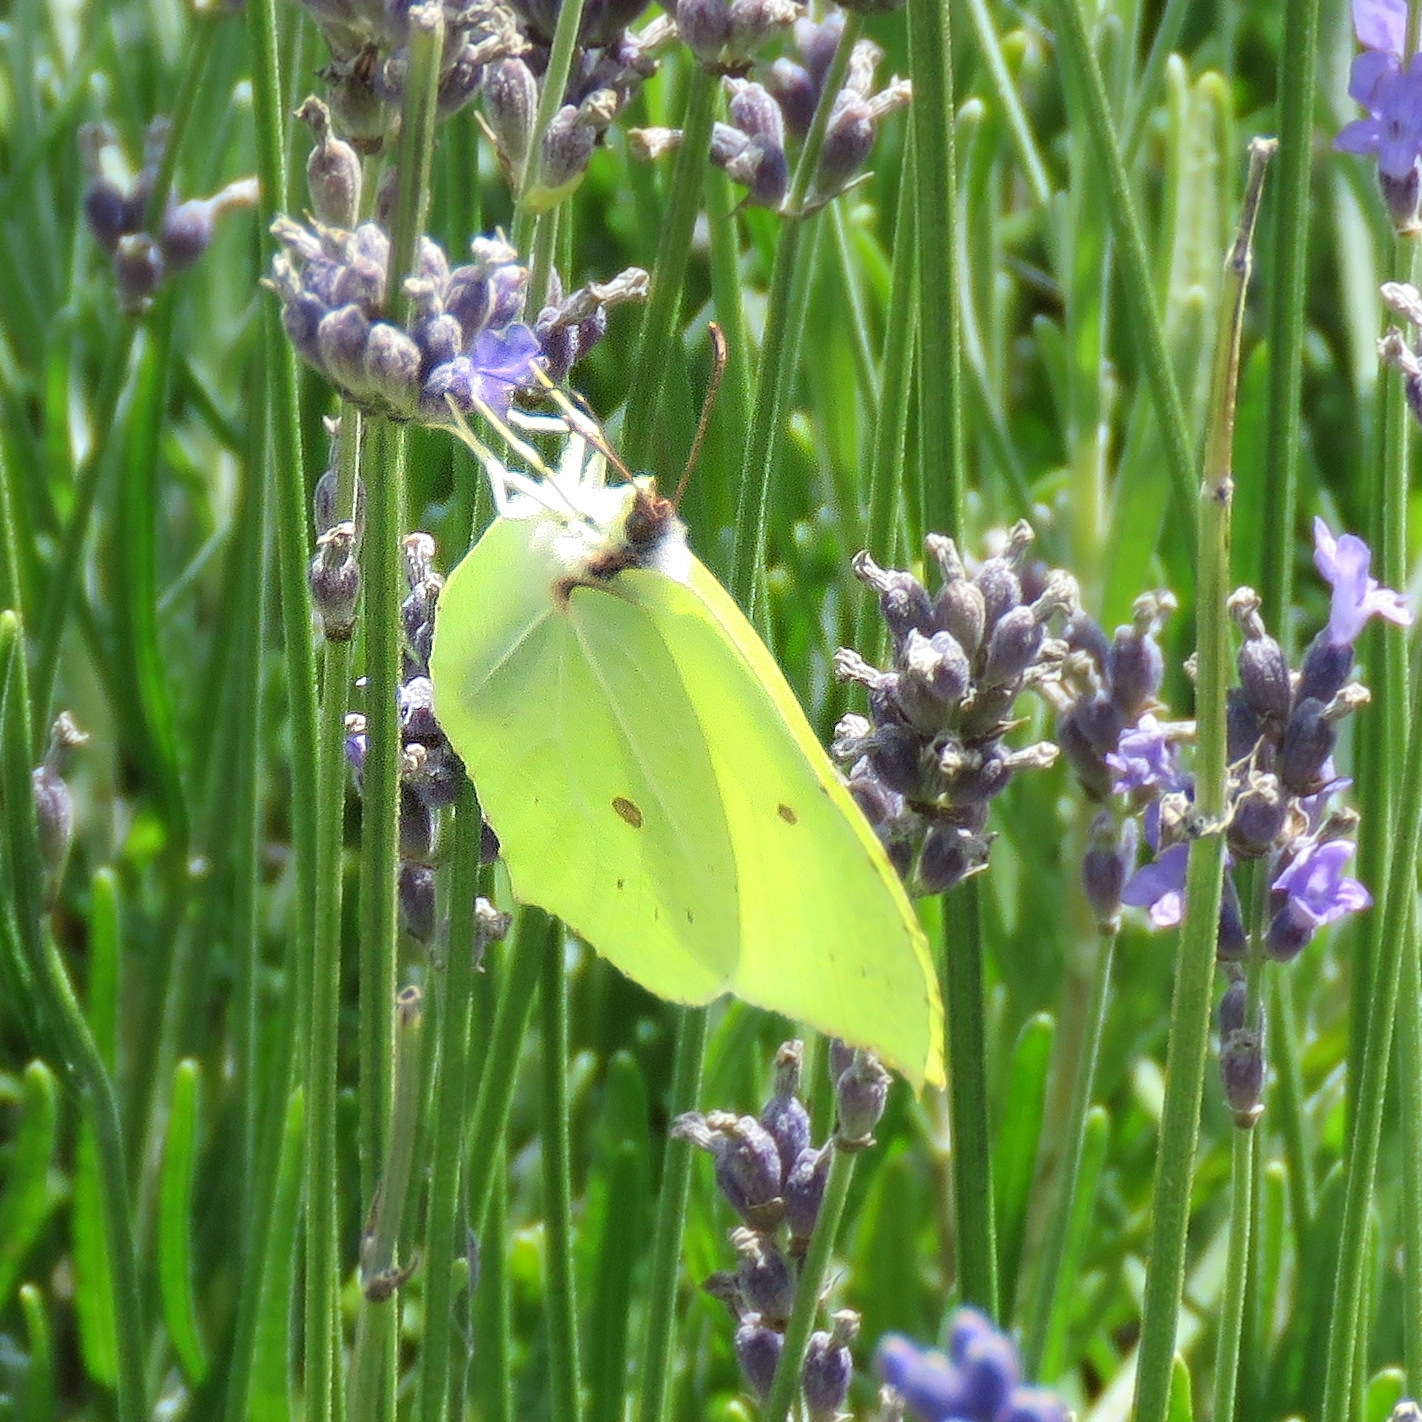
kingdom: Animalia
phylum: Arthropoda
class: Insecta
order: Lepidoptera
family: Pieridae
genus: Gonepteryx
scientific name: Gonepteryx rhamni
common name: Brimstone
